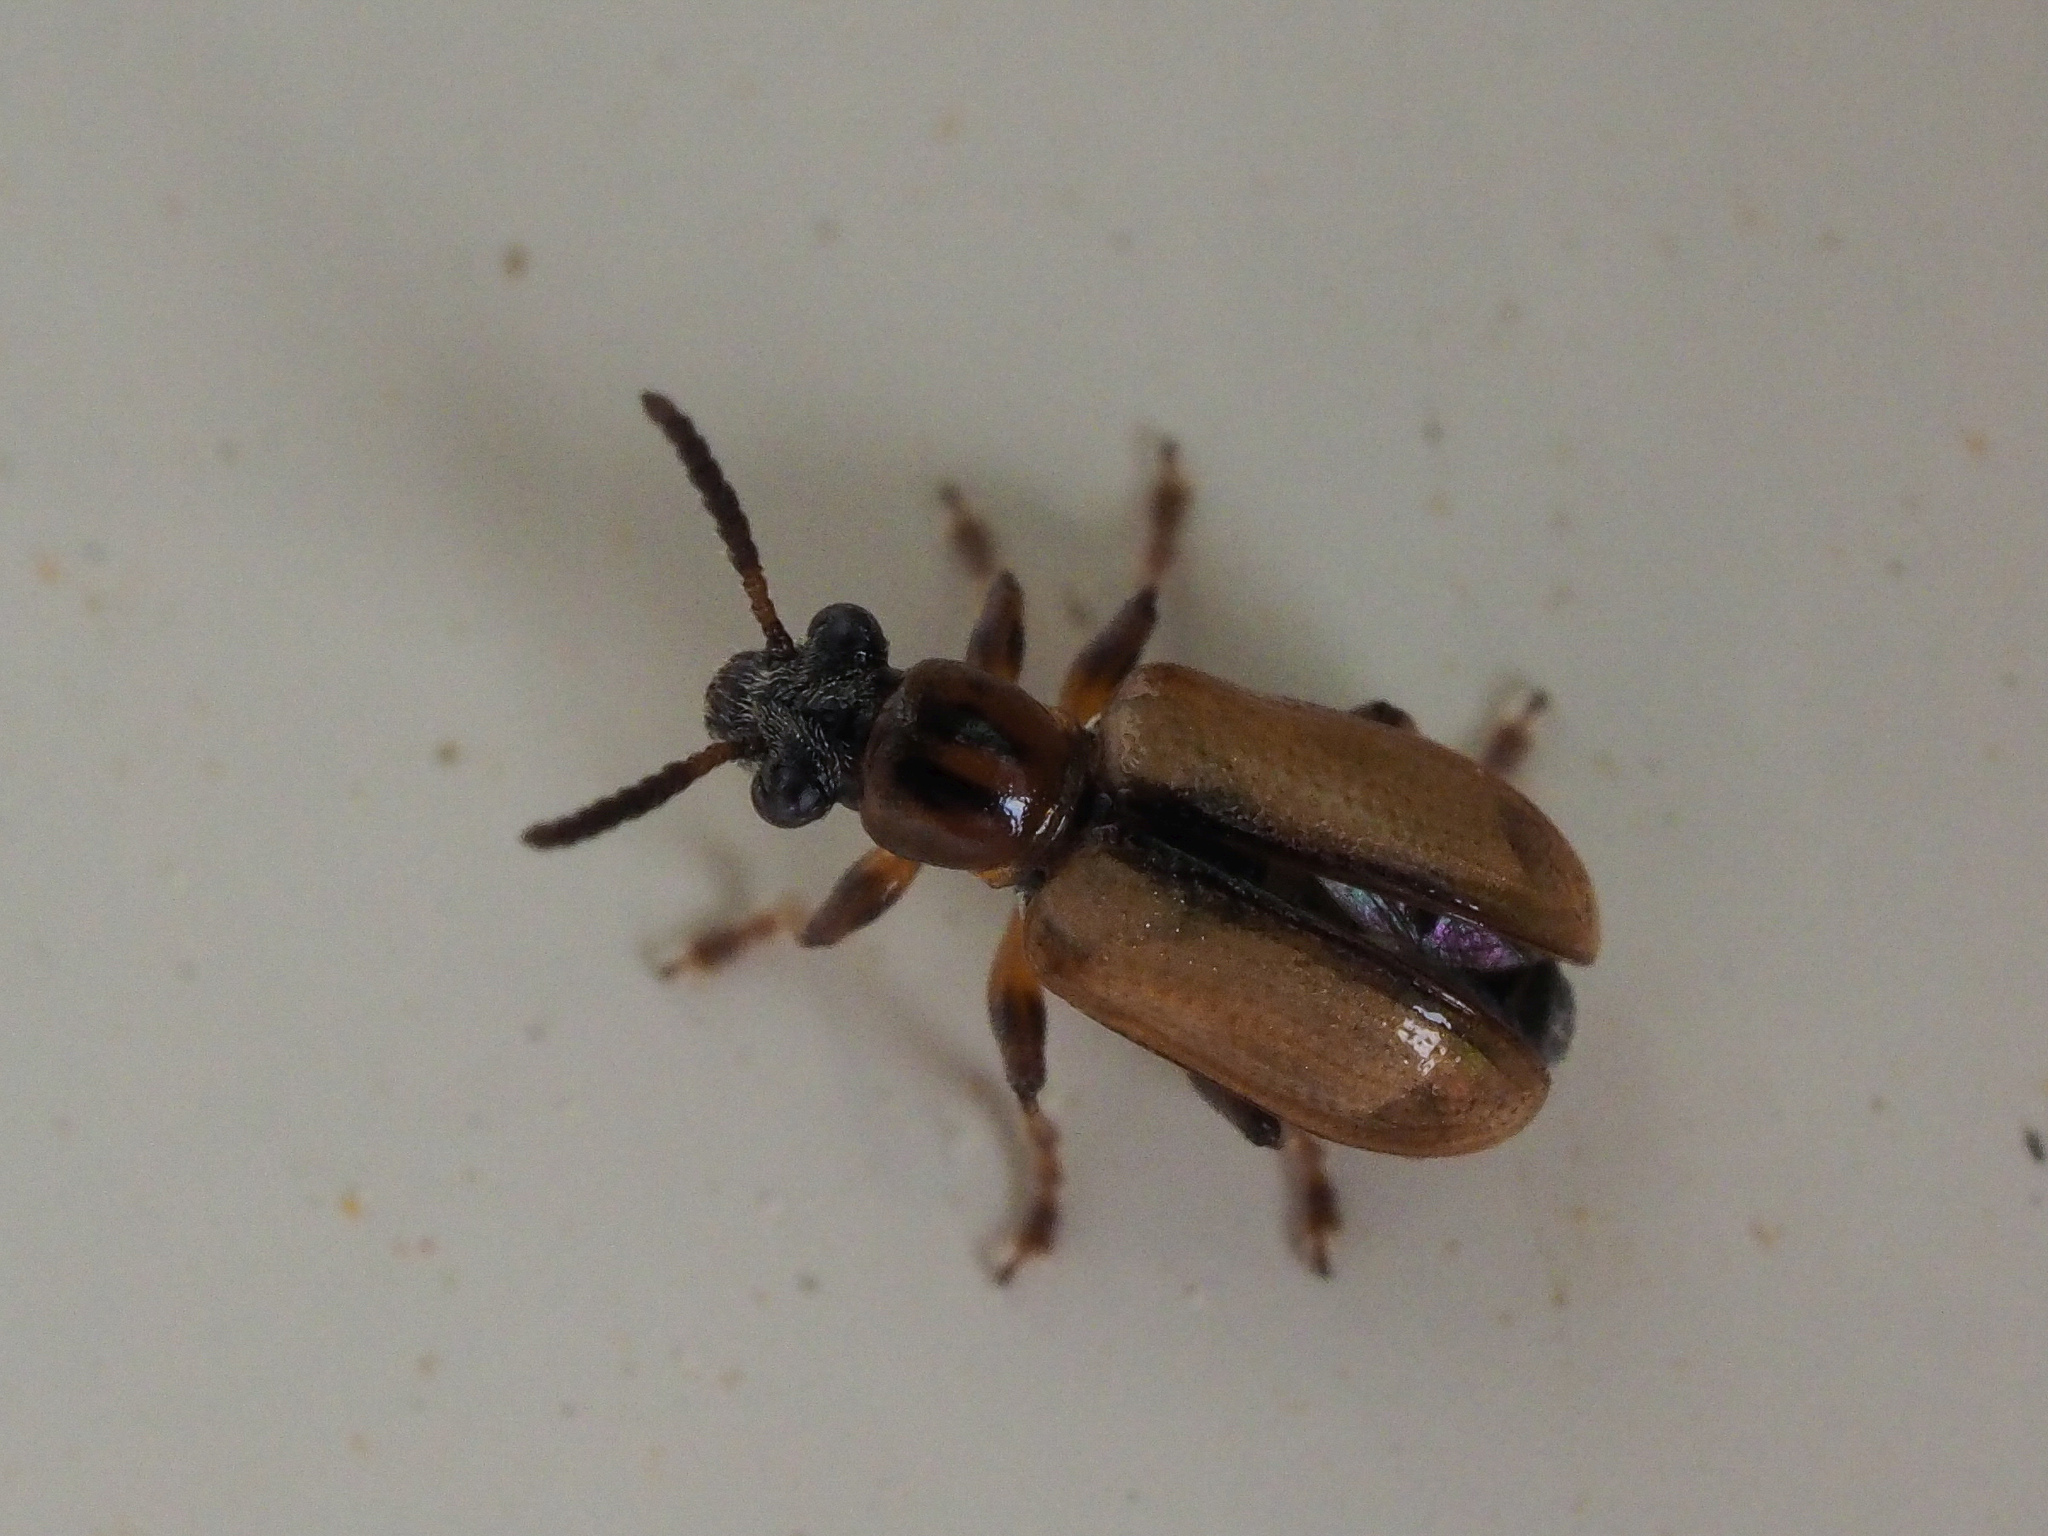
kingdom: Animalia
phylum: Arthropoda
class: Insecta
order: Coleoptera
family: Chrysomelidae
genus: Crioceris
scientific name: Crioceris paracenthesis
